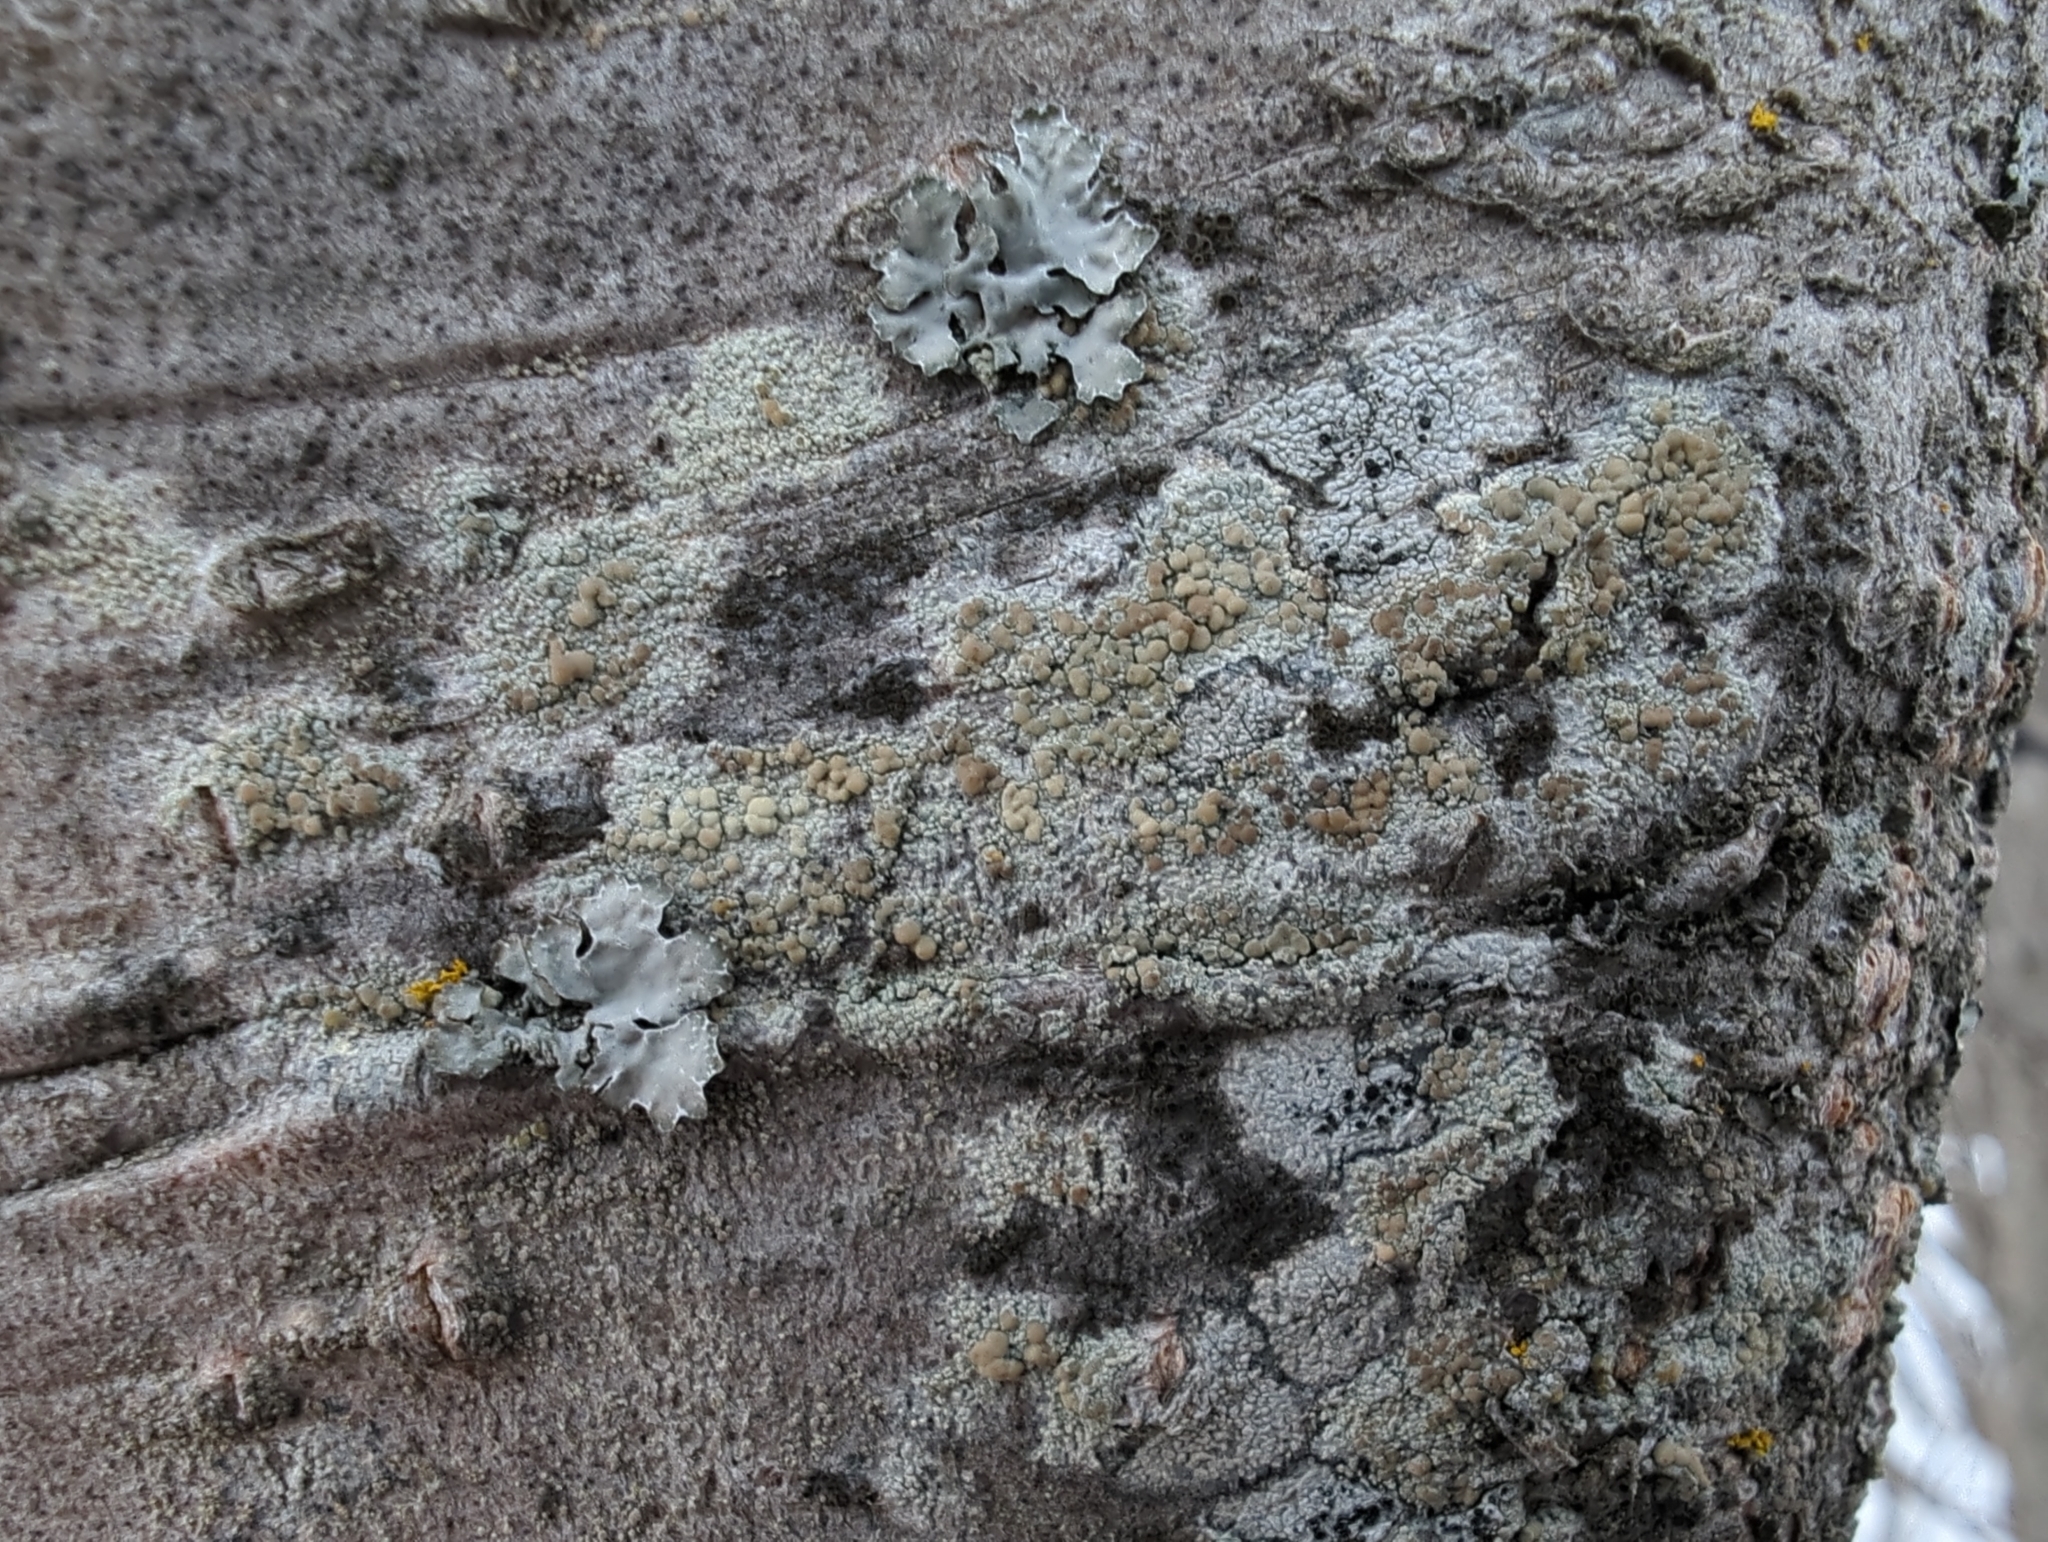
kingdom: Fungi
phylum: Ascomycota
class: Lecanoromycetes
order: Lecanorales
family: Lecanoraceae
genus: Lecanora
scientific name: Lecanora symmicta
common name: Fused rim lichen
